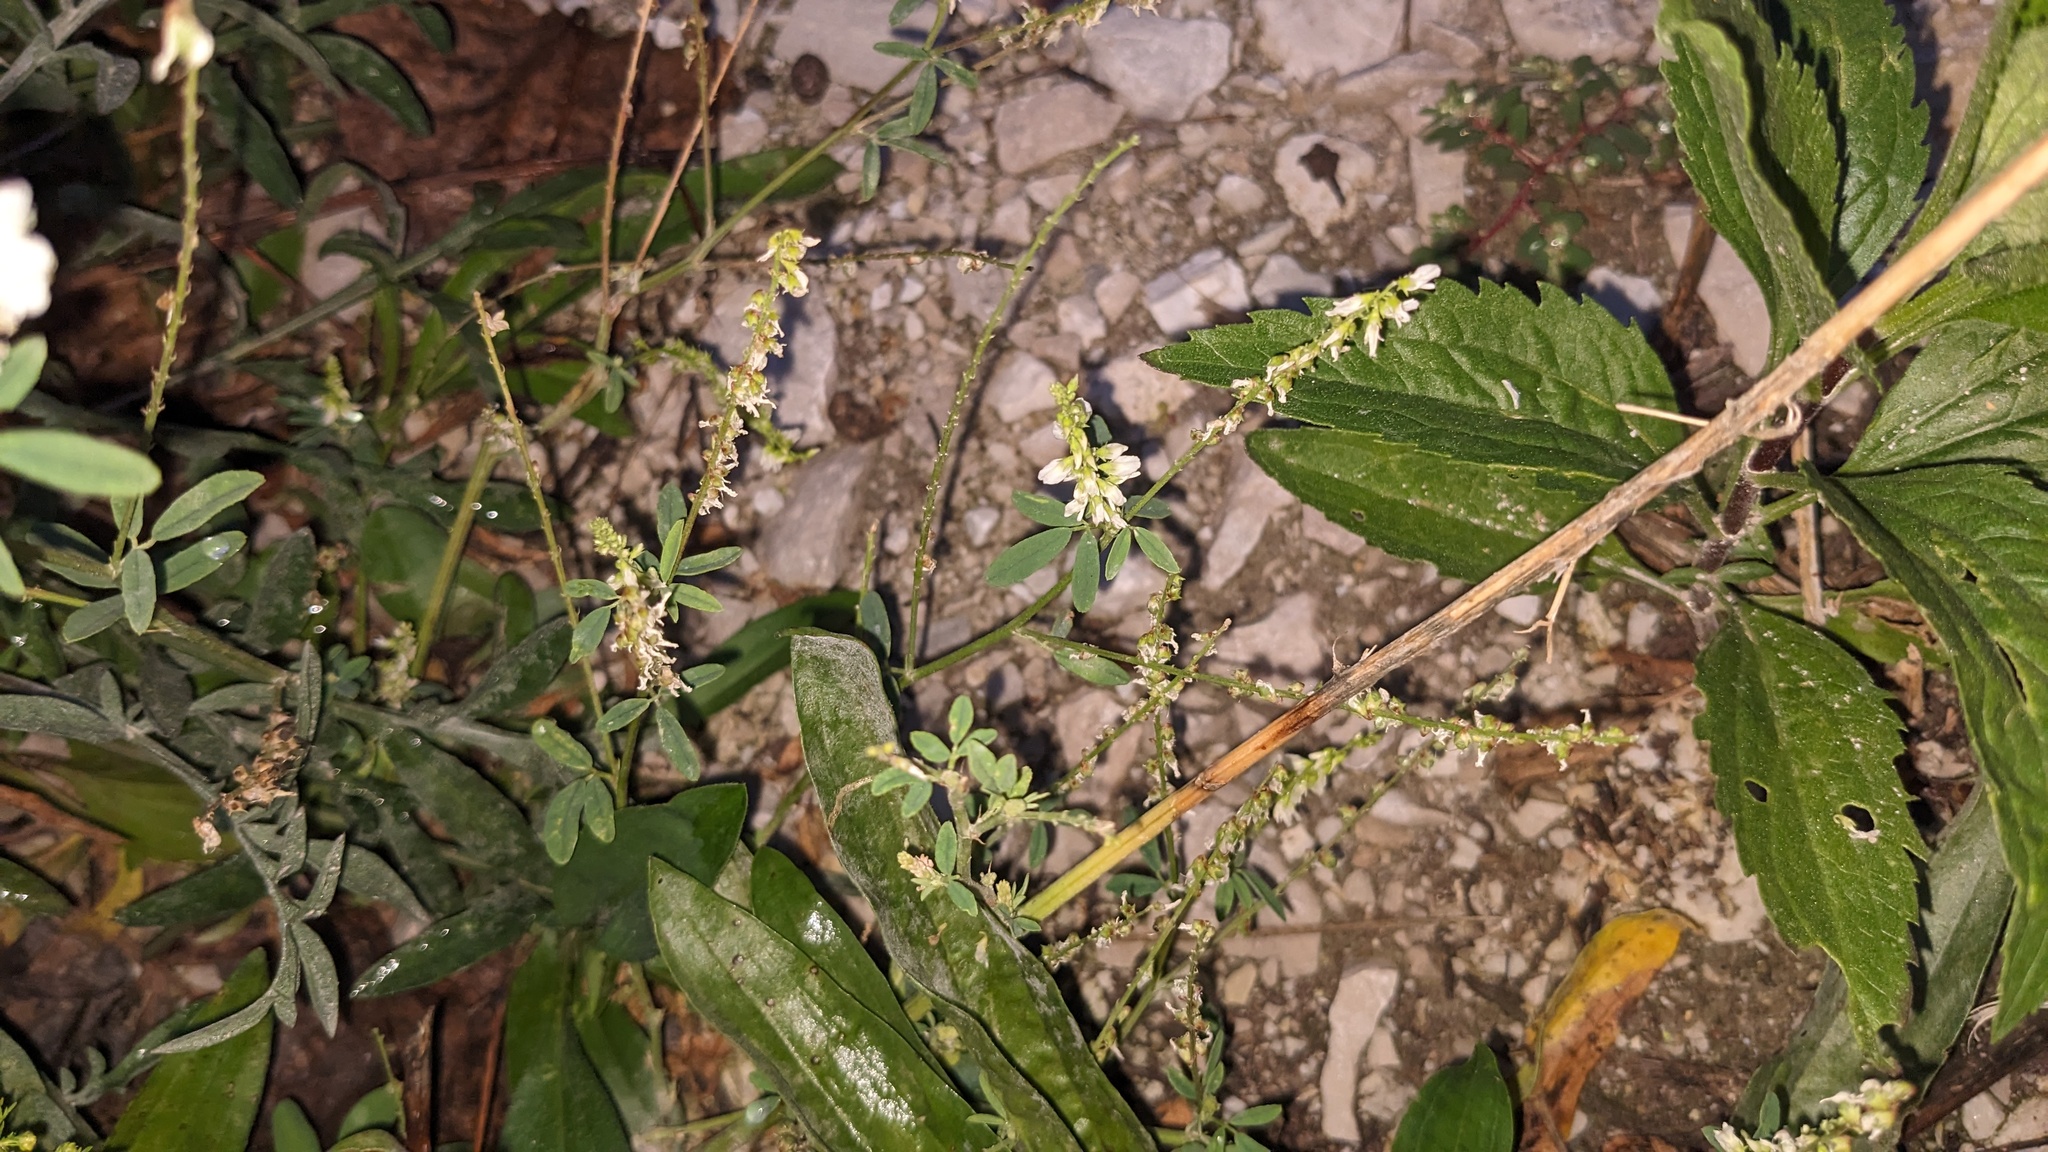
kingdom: Plantae
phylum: Tracheophyta
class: Magnoliopsida
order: Fabales
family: Fabaceae
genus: Melilotus
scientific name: Melilotus albus
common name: White melilot
